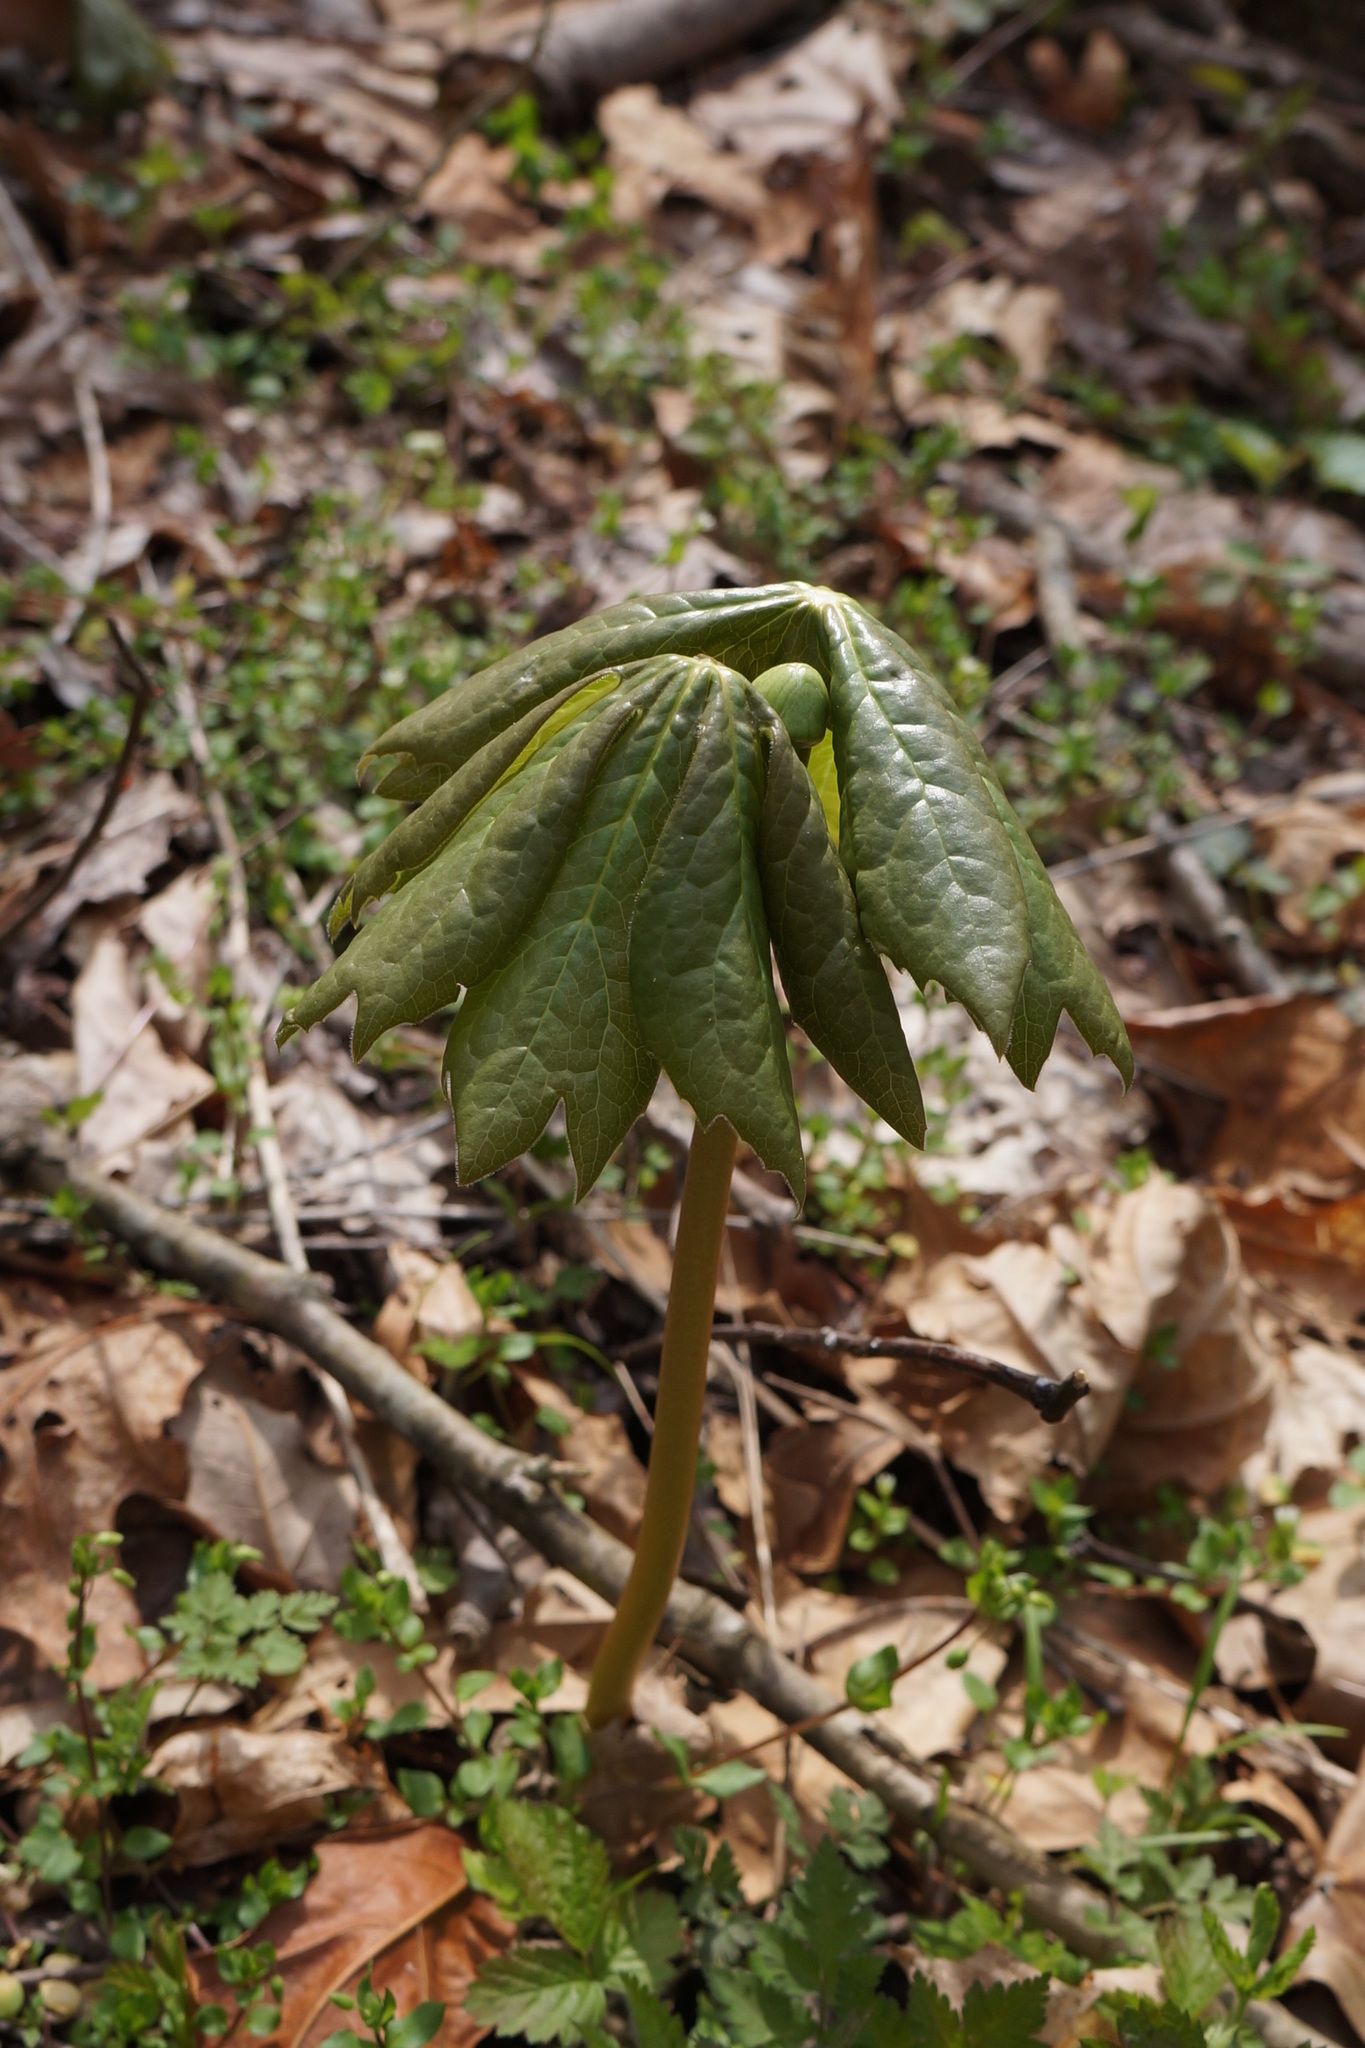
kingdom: Plantae
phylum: Tracheophyta
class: Magnoliopsida
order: Ranunculales
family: Berberidaceae
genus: Podophyllum
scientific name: Podophyllum peltatum
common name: Wild mandrake
